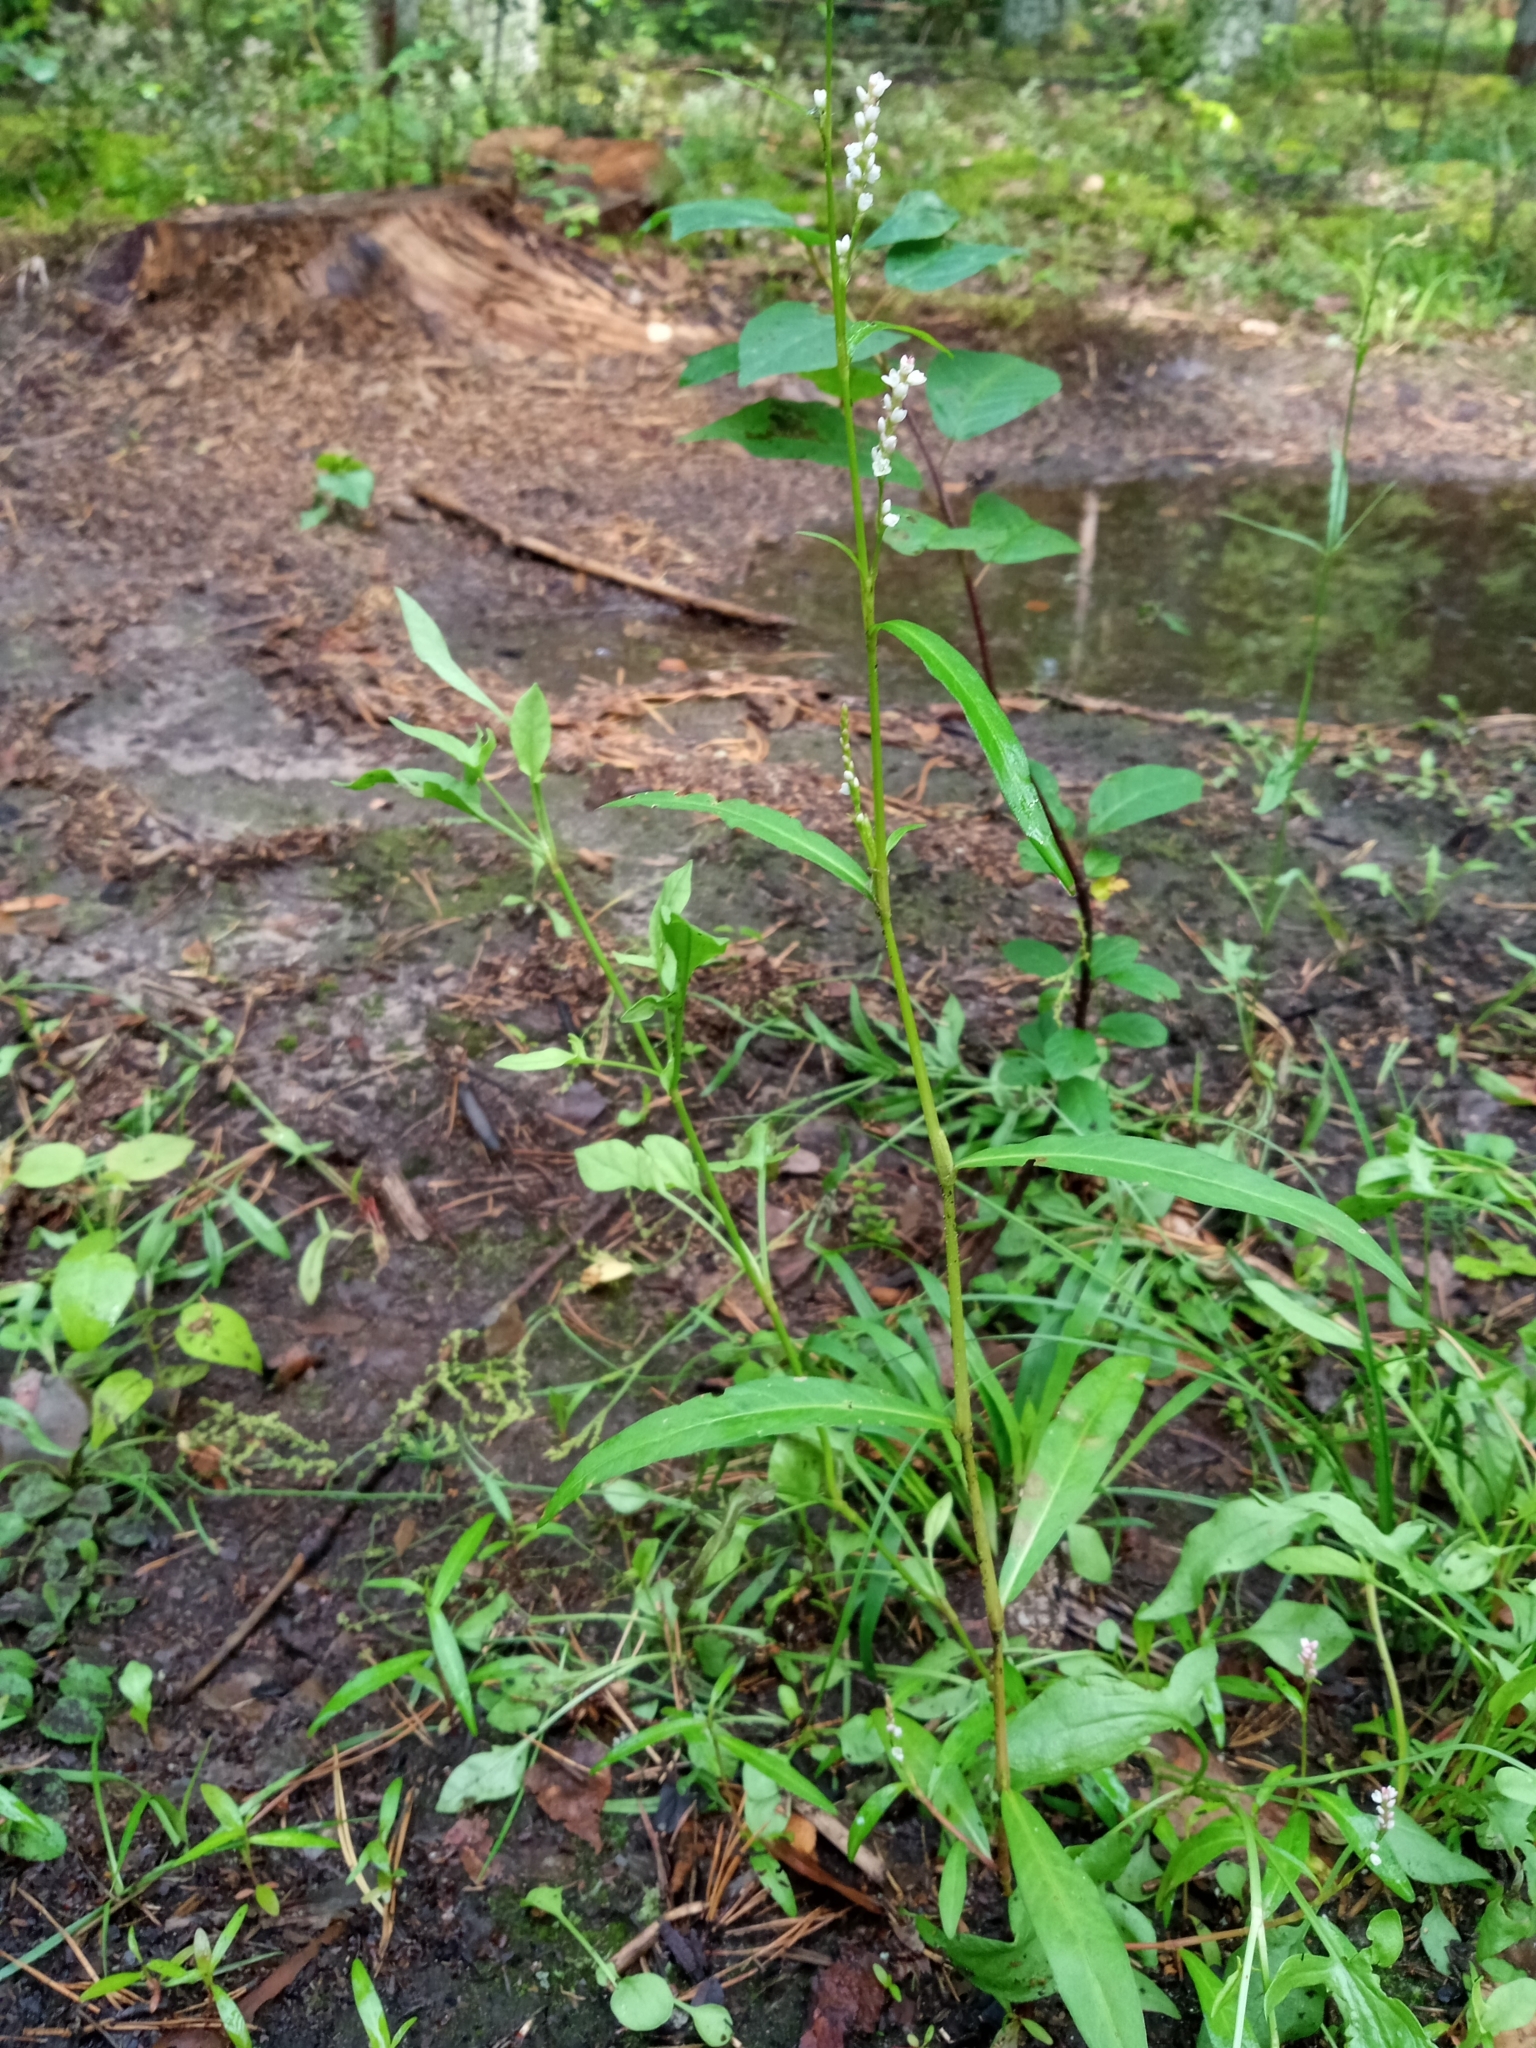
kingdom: Plantae
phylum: Tracheophyta
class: Magnoliopsida
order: Caryophyllales
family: Polygonaceae
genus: Persicaria
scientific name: Persicaria minor
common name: Small water-pepper
